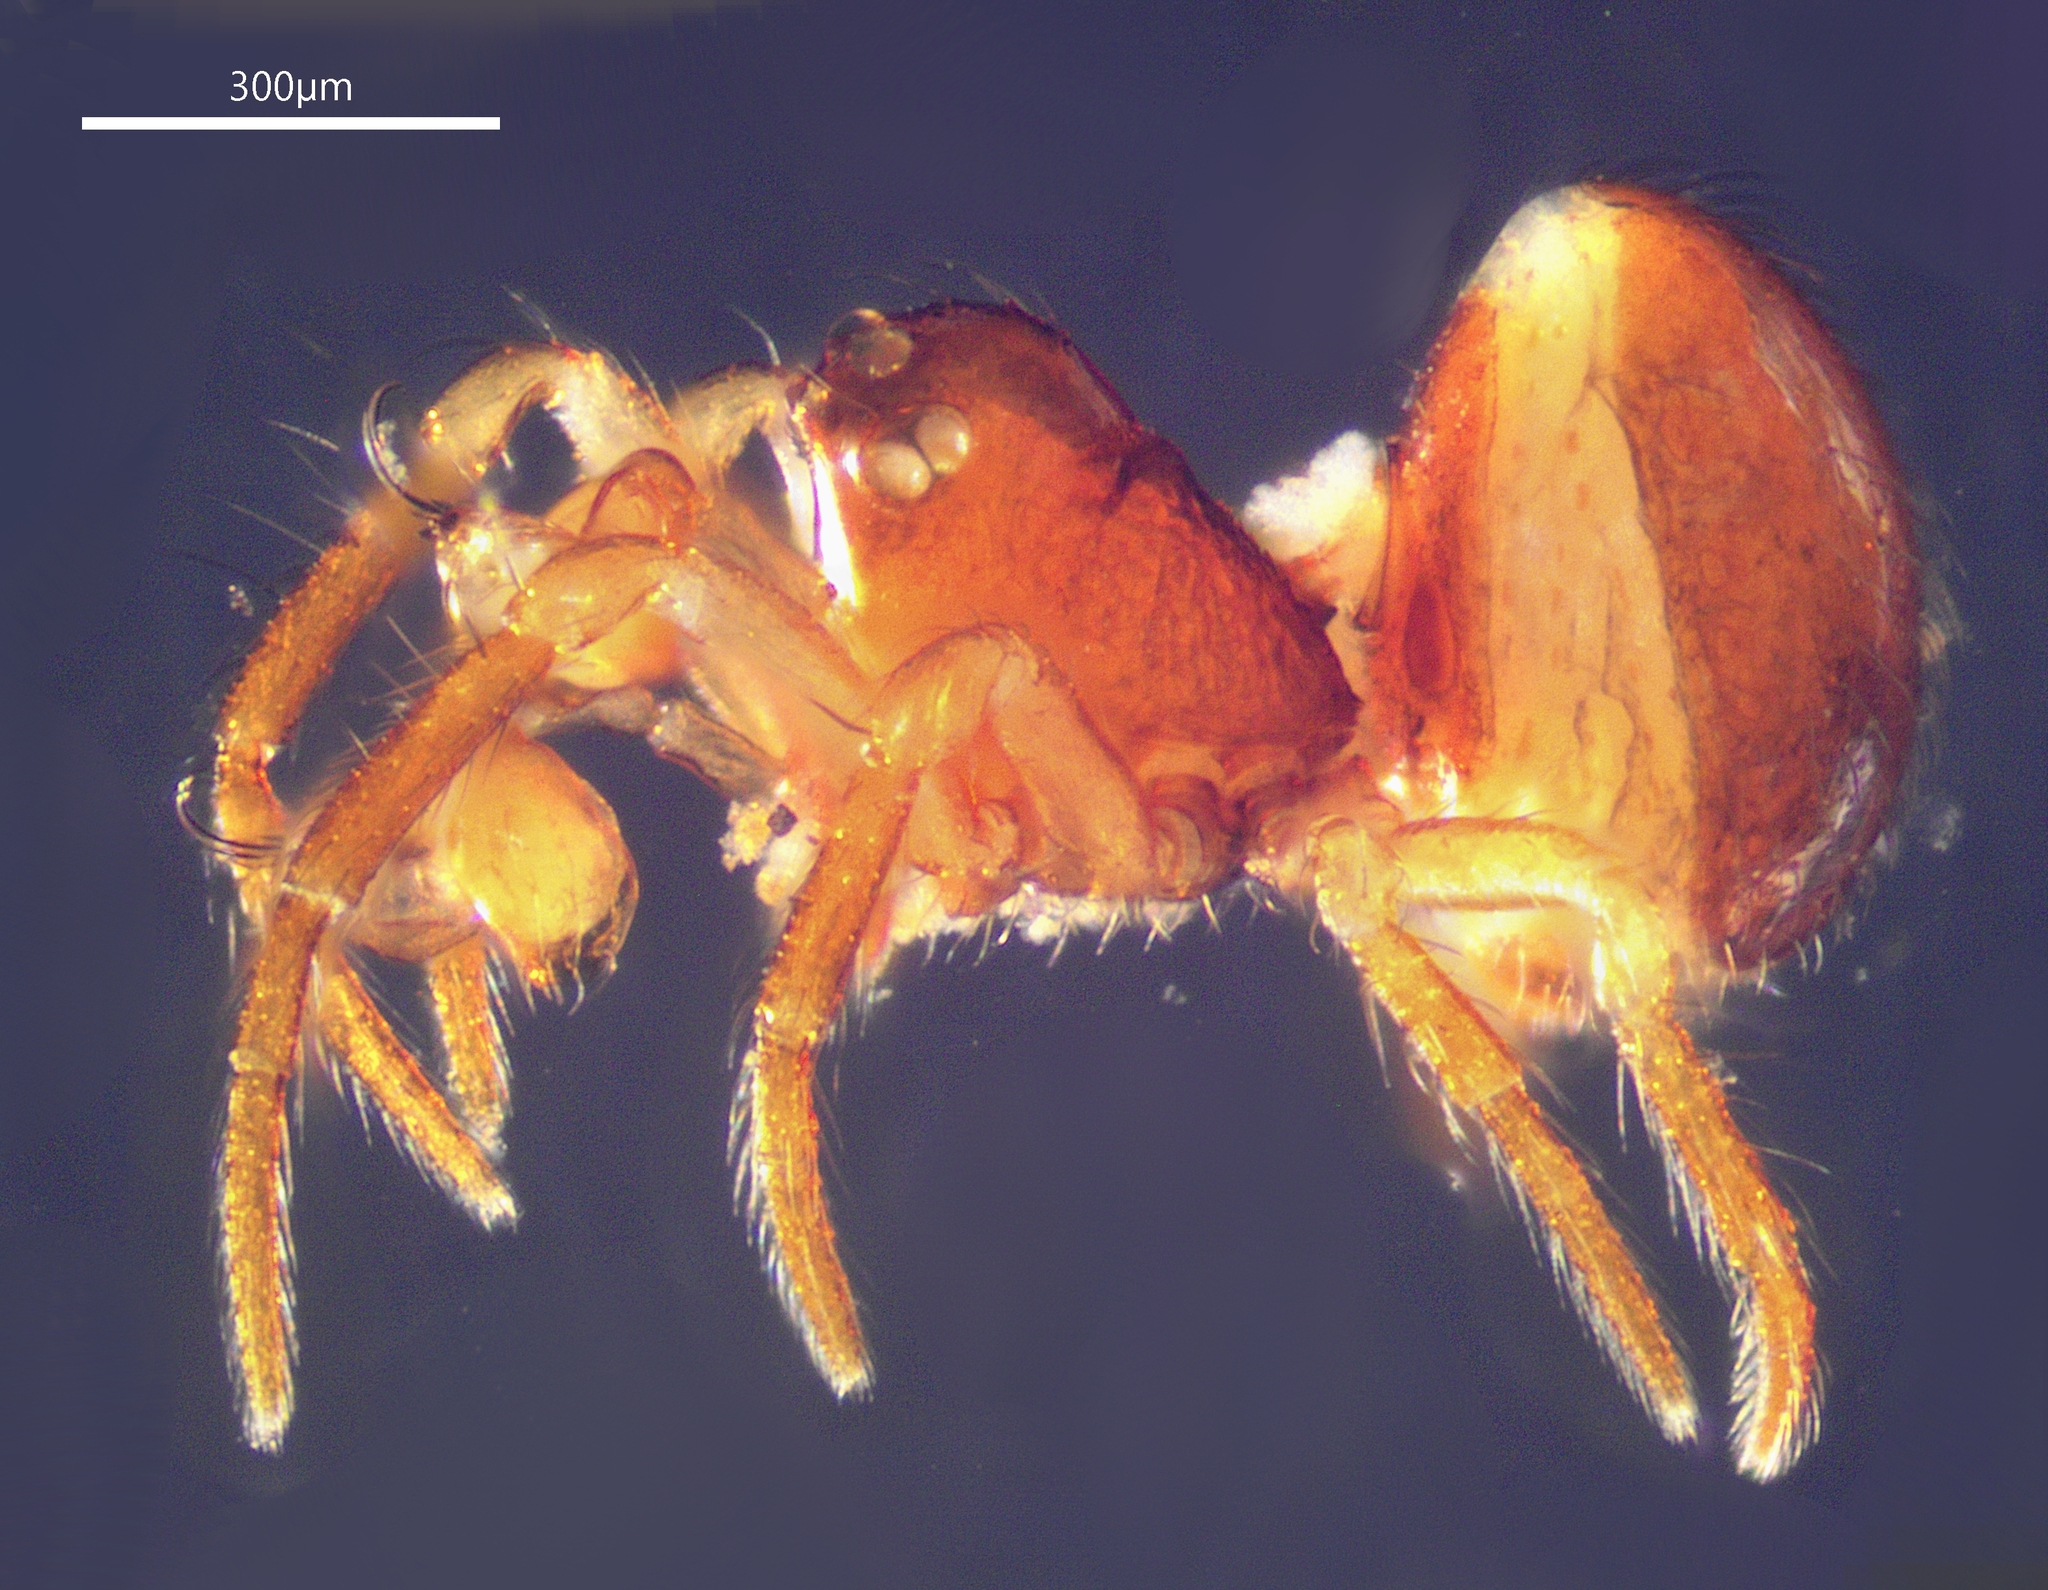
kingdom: Animalia
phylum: Arthropoda
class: Arachnida
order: Araneae
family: Anapidae
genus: Chasmocephalon
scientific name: Chasmocephalon iluka
